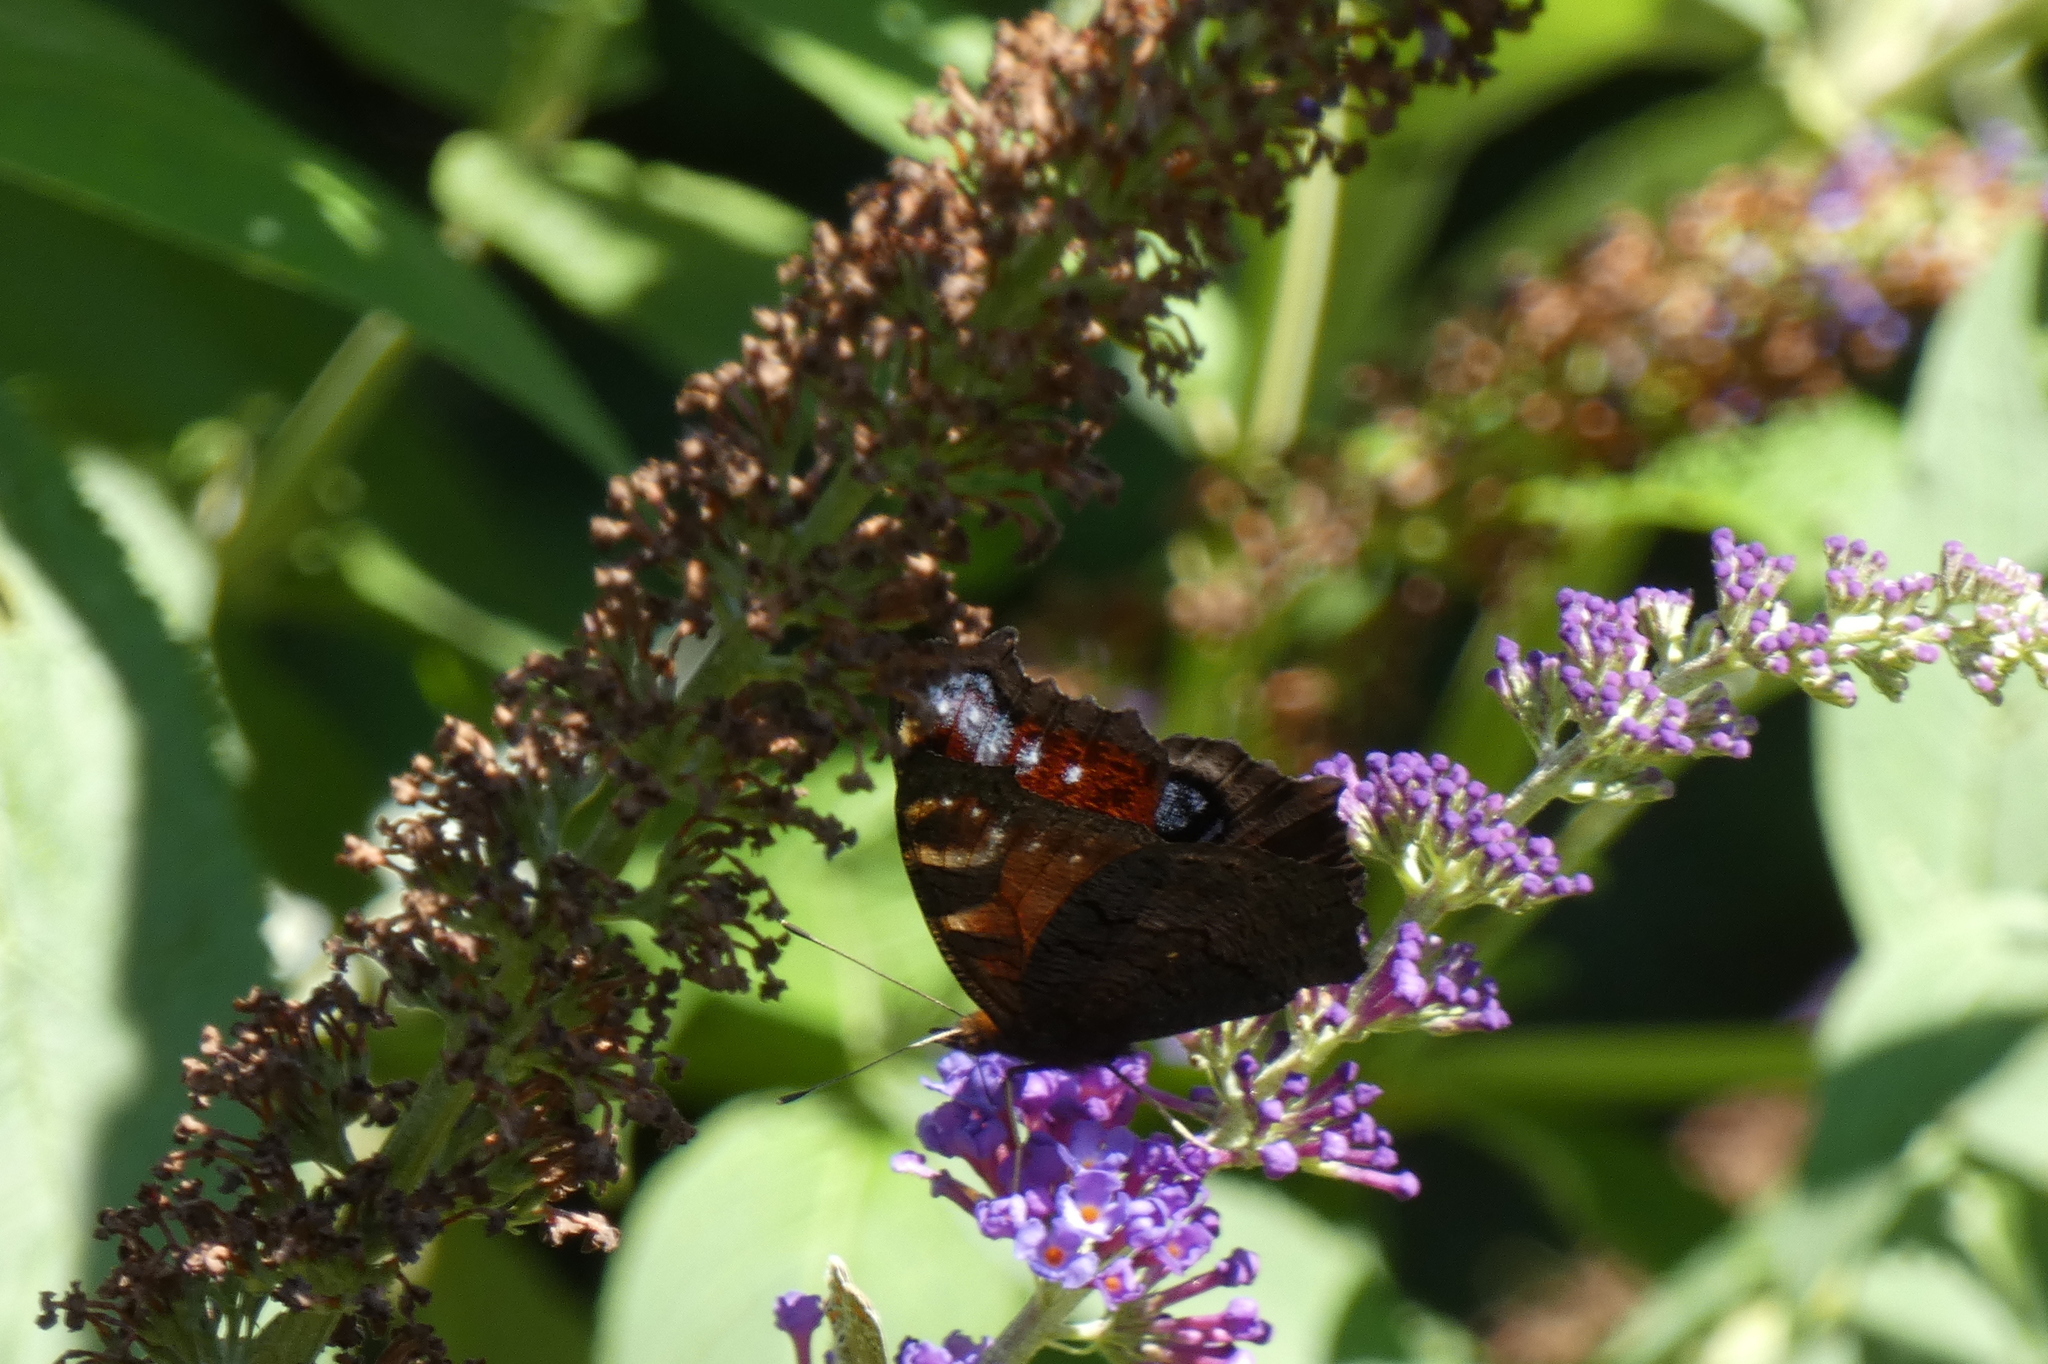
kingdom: Animalia
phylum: Arthropoda
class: Insecta
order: Lepidoptera
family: Nymphalidae
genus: Aglais
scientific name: Aglais io
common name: Peacock
